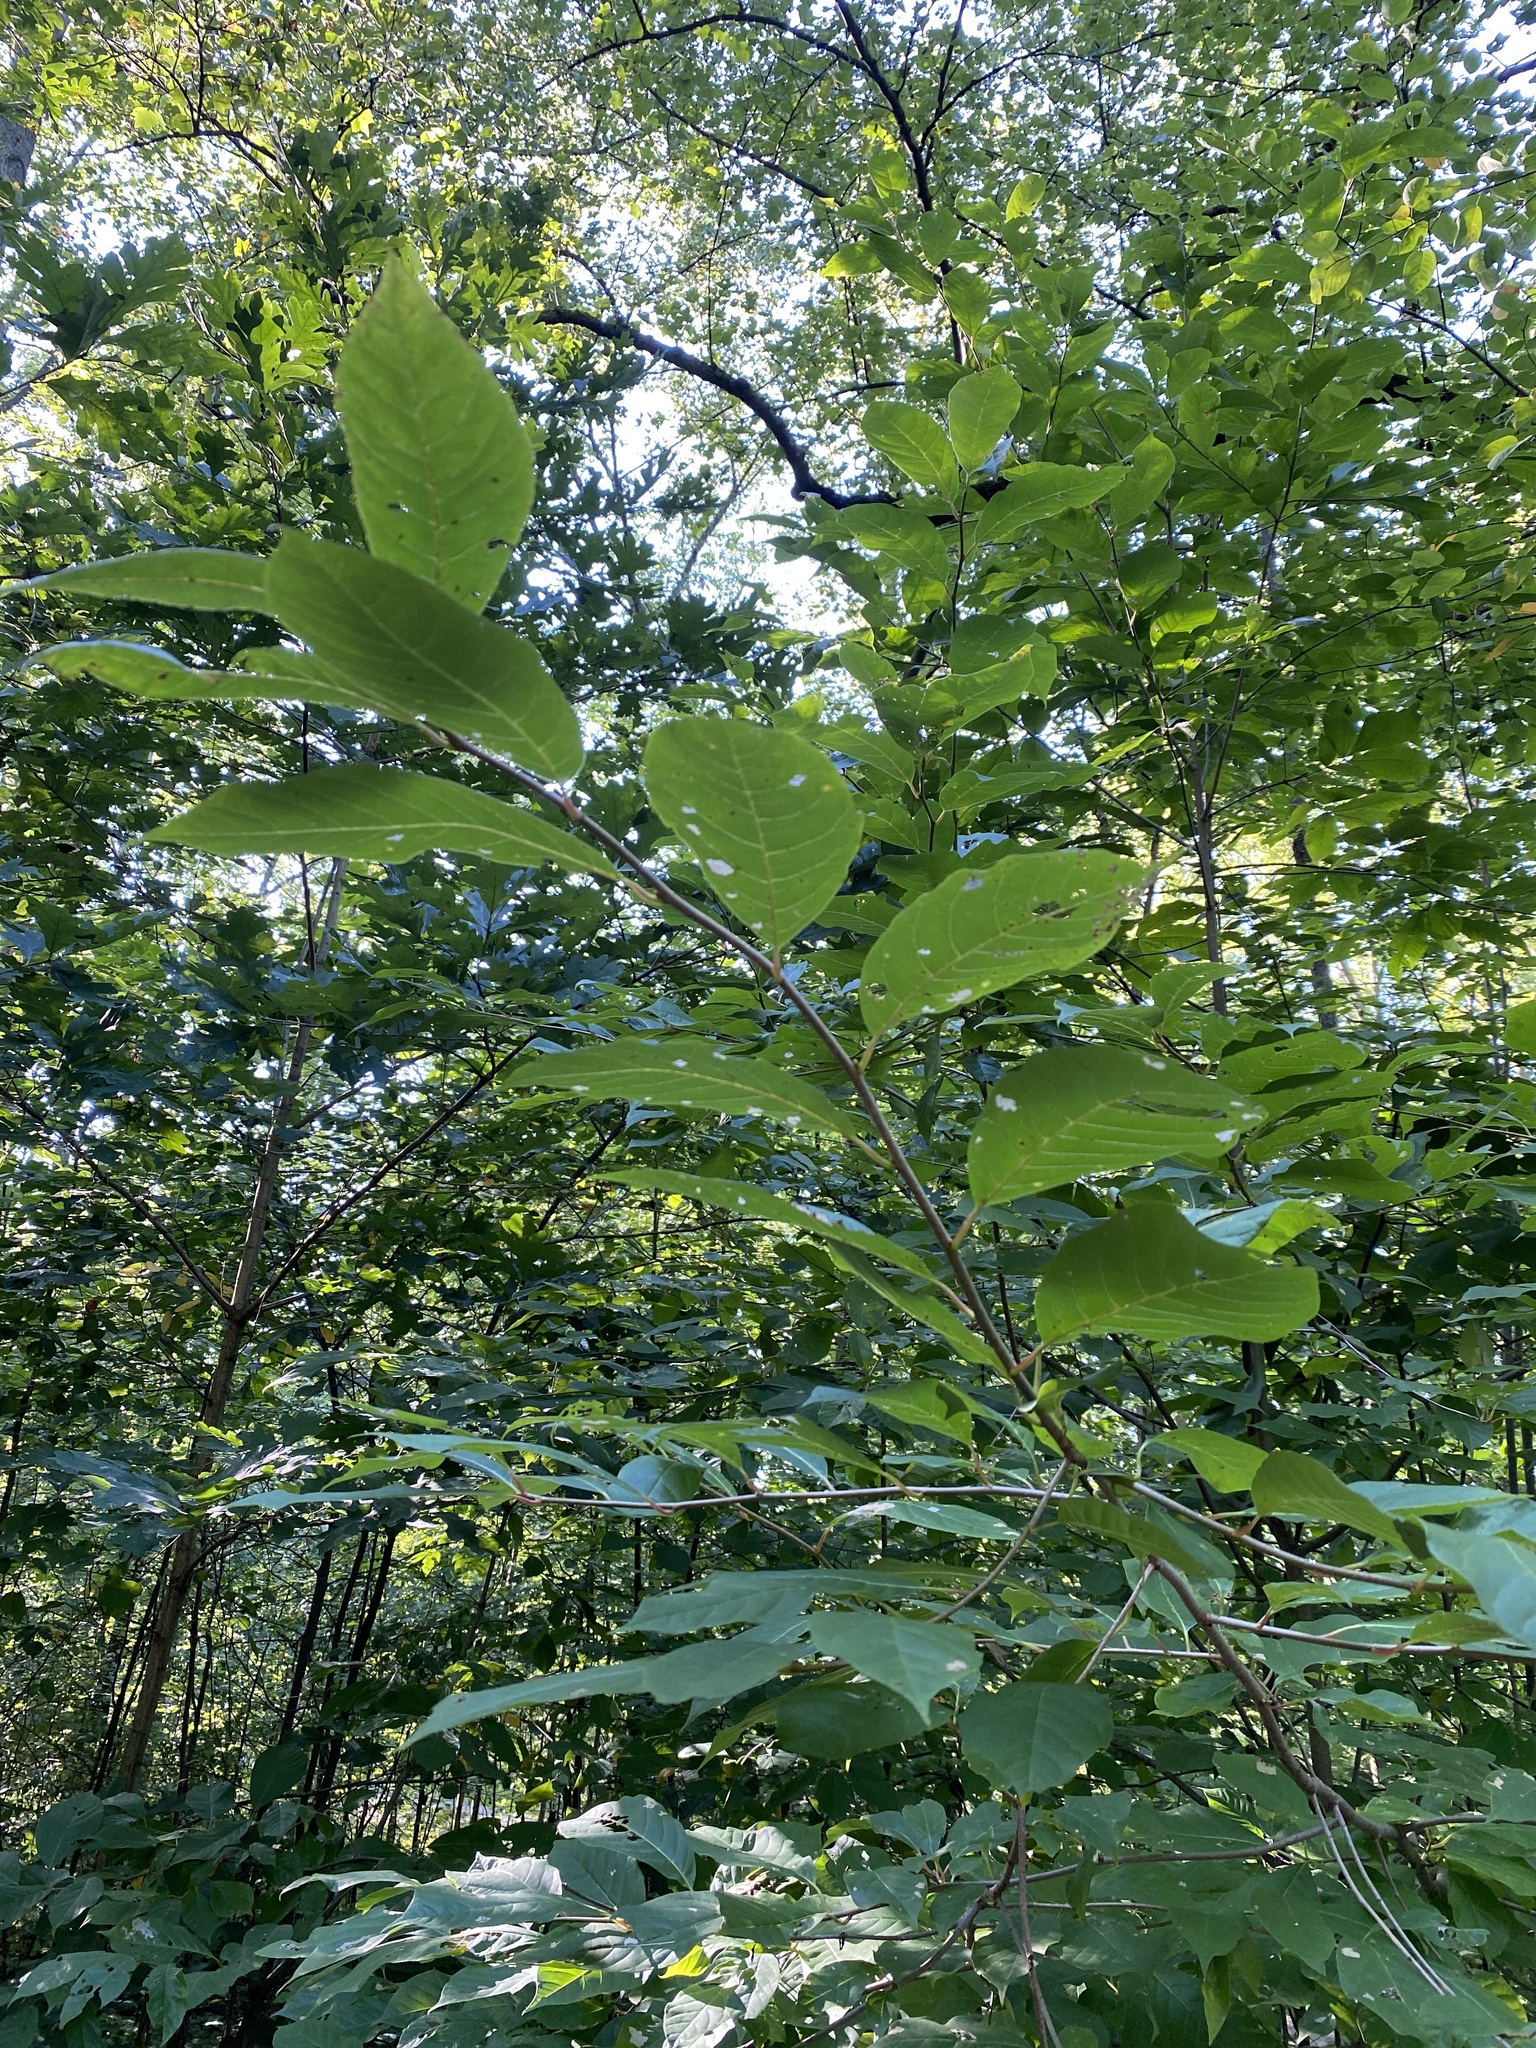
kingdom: Plantae
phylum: Tracheophyta
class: Magnoliopsida
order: Cornales
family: Nyssaceae
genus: Nyssa
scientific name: Nyssa sylvatica
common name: Black tupelo
